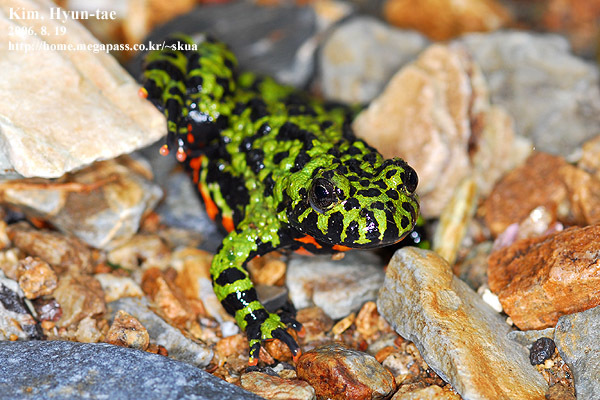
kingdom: Animalia
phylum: Chordata
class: Amphibia
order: Anura
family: Bombinatoridae
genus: Bombina
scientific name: Bombina orientalis
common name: Oriental firebelly toad
